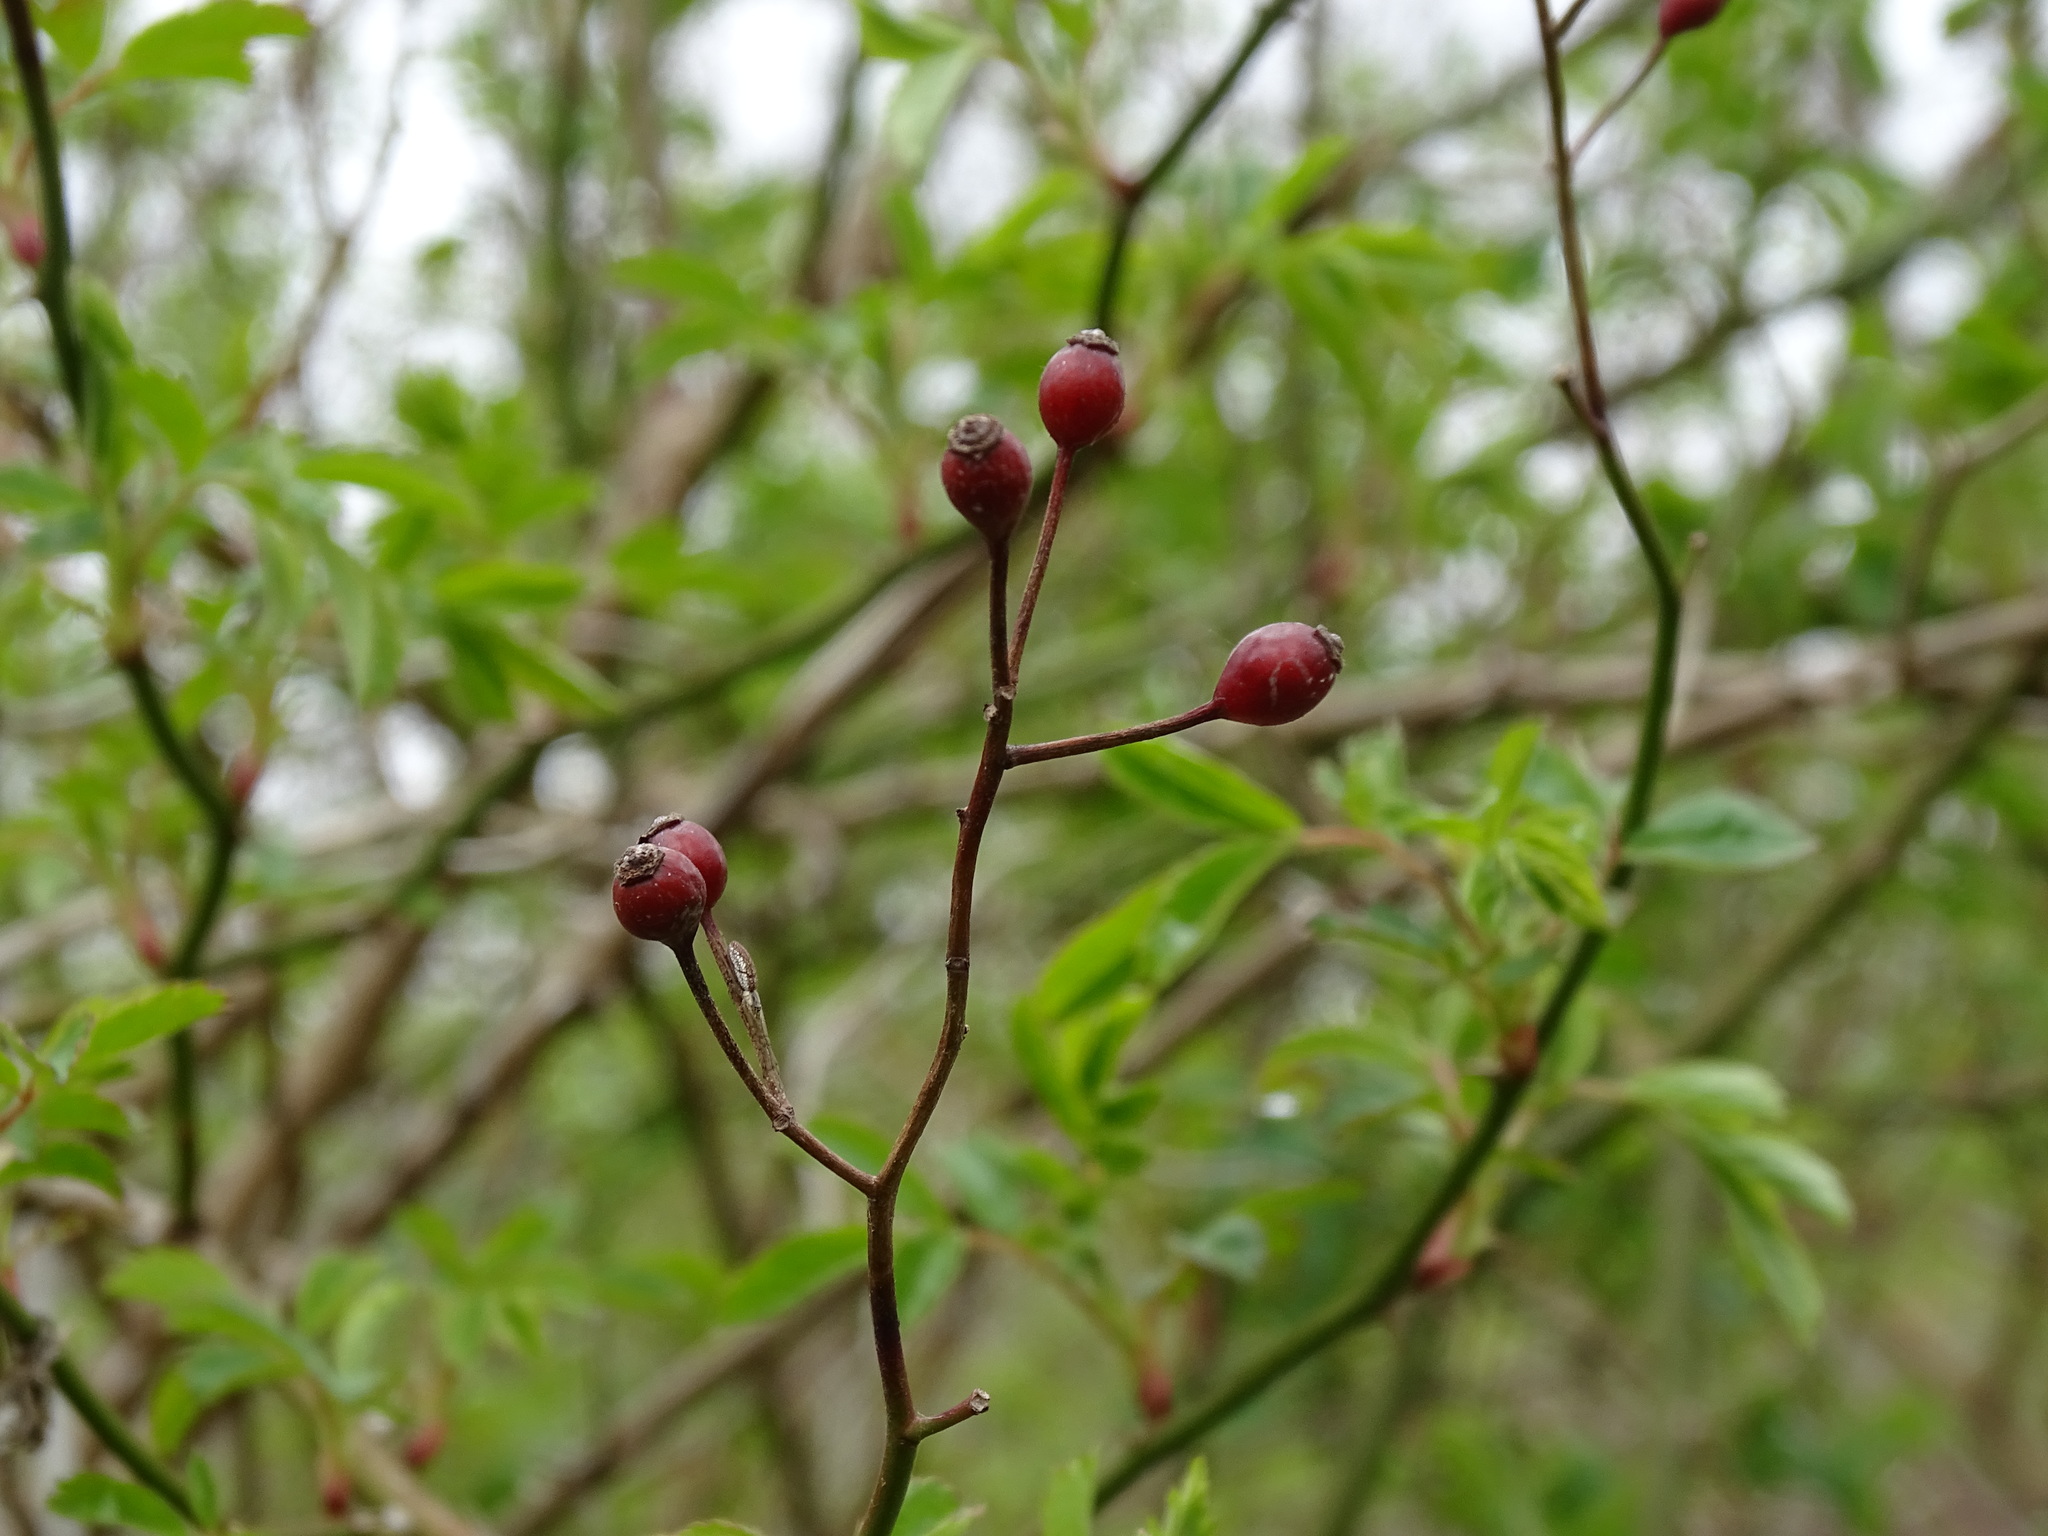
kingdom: Plantae
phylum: Tracheophyta
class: Magnoliopsida
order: Rosales
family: Rosaceae
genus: Rosa
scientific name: Rosa multiflora
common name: Multiflora rose
